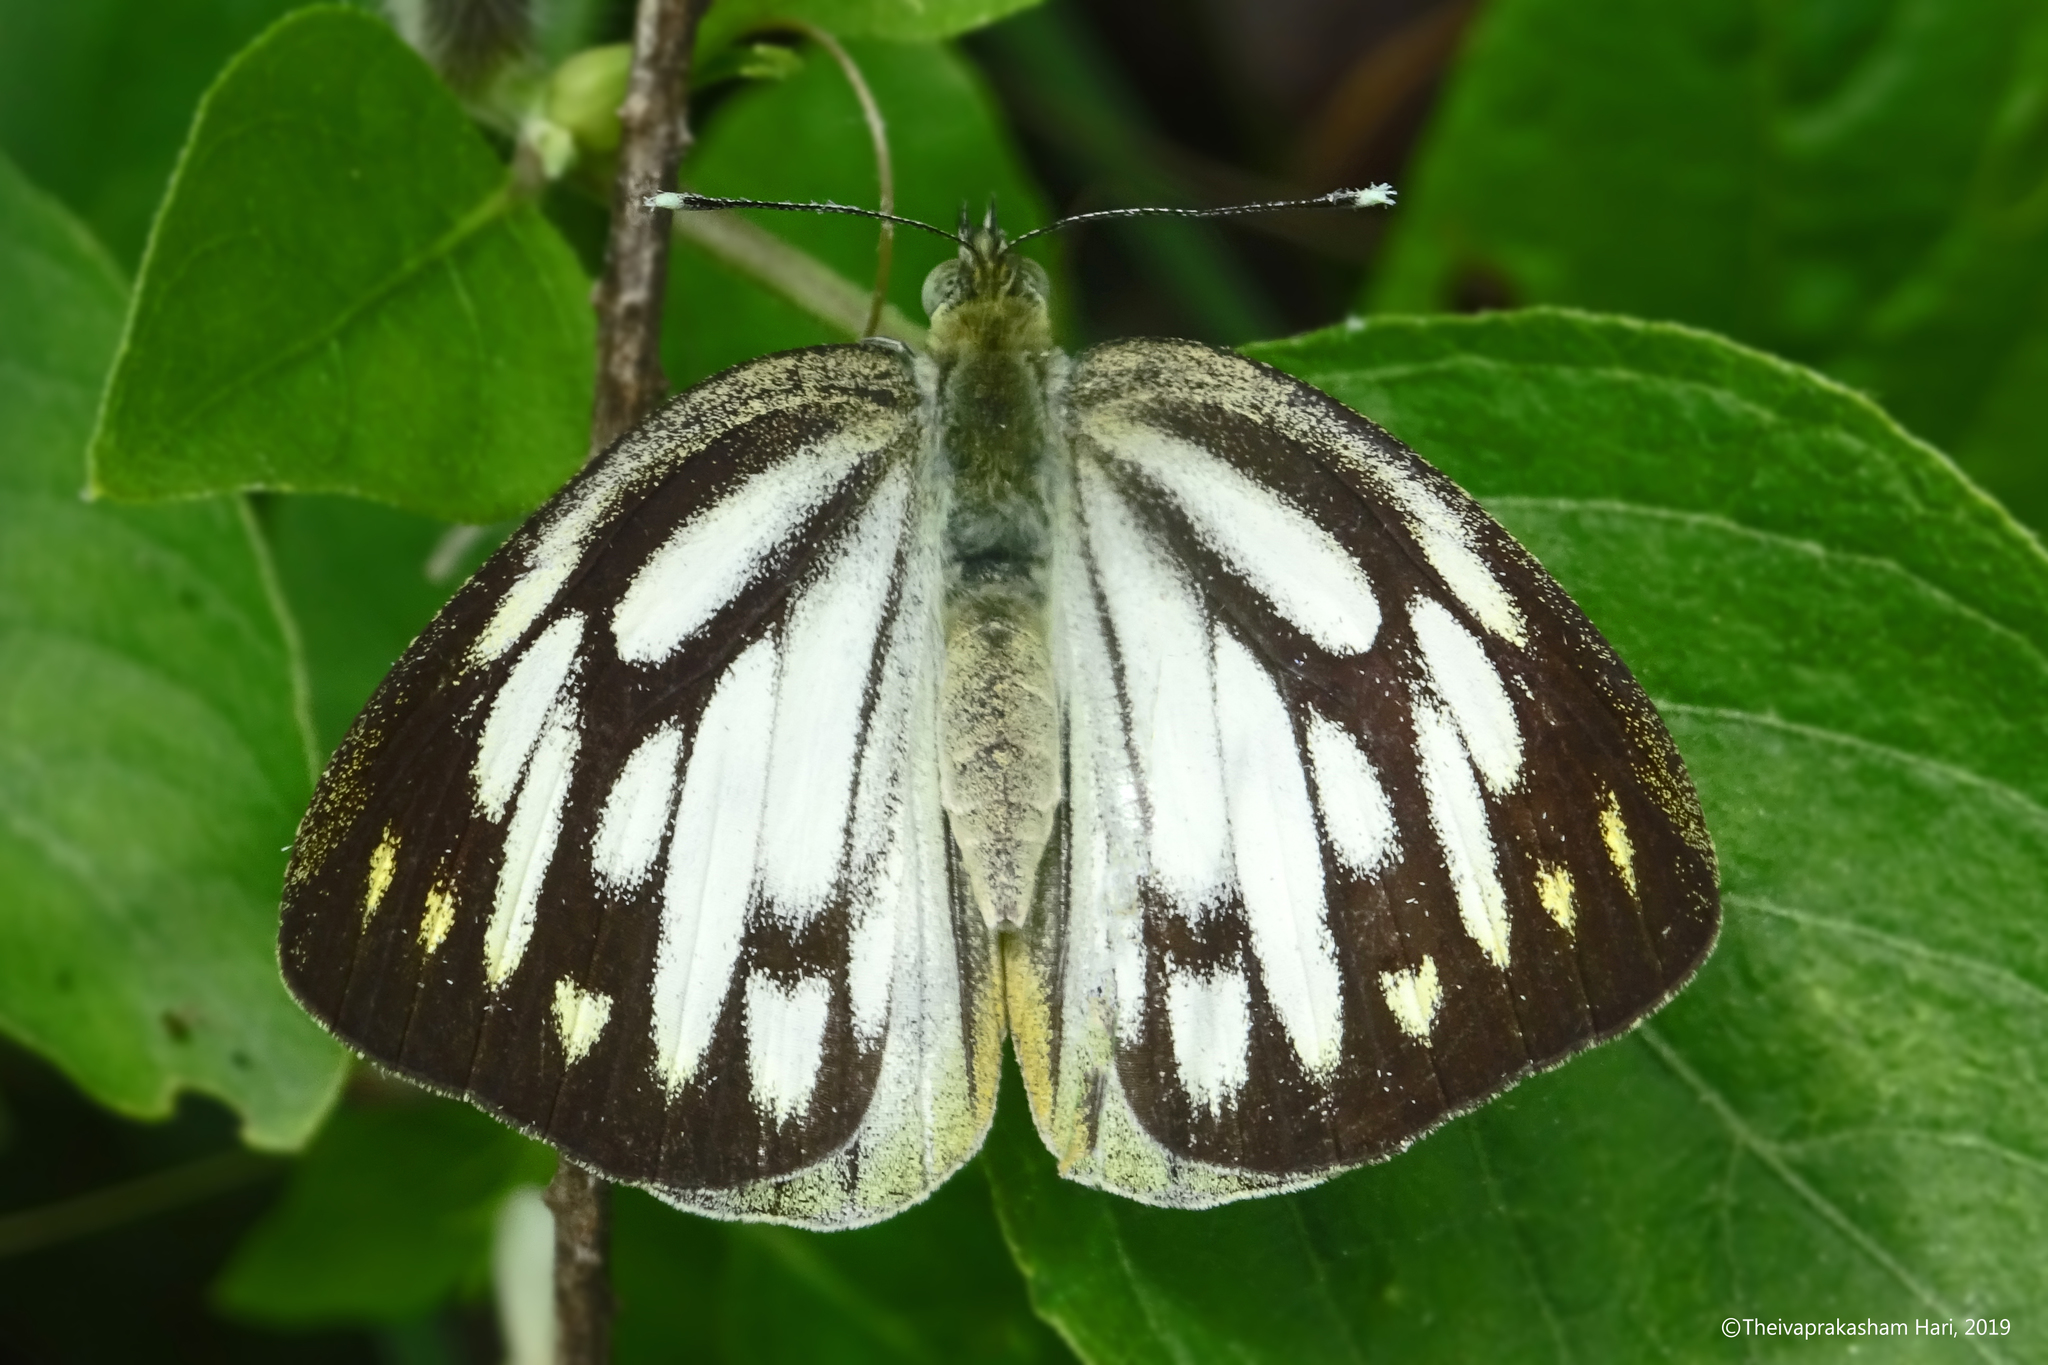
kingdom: Animalia
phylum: Arthropoda
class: Insecta
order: Lepidoptera
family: Pieridae
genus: Cepora
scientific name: Cepora nerissa
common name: Common gull
